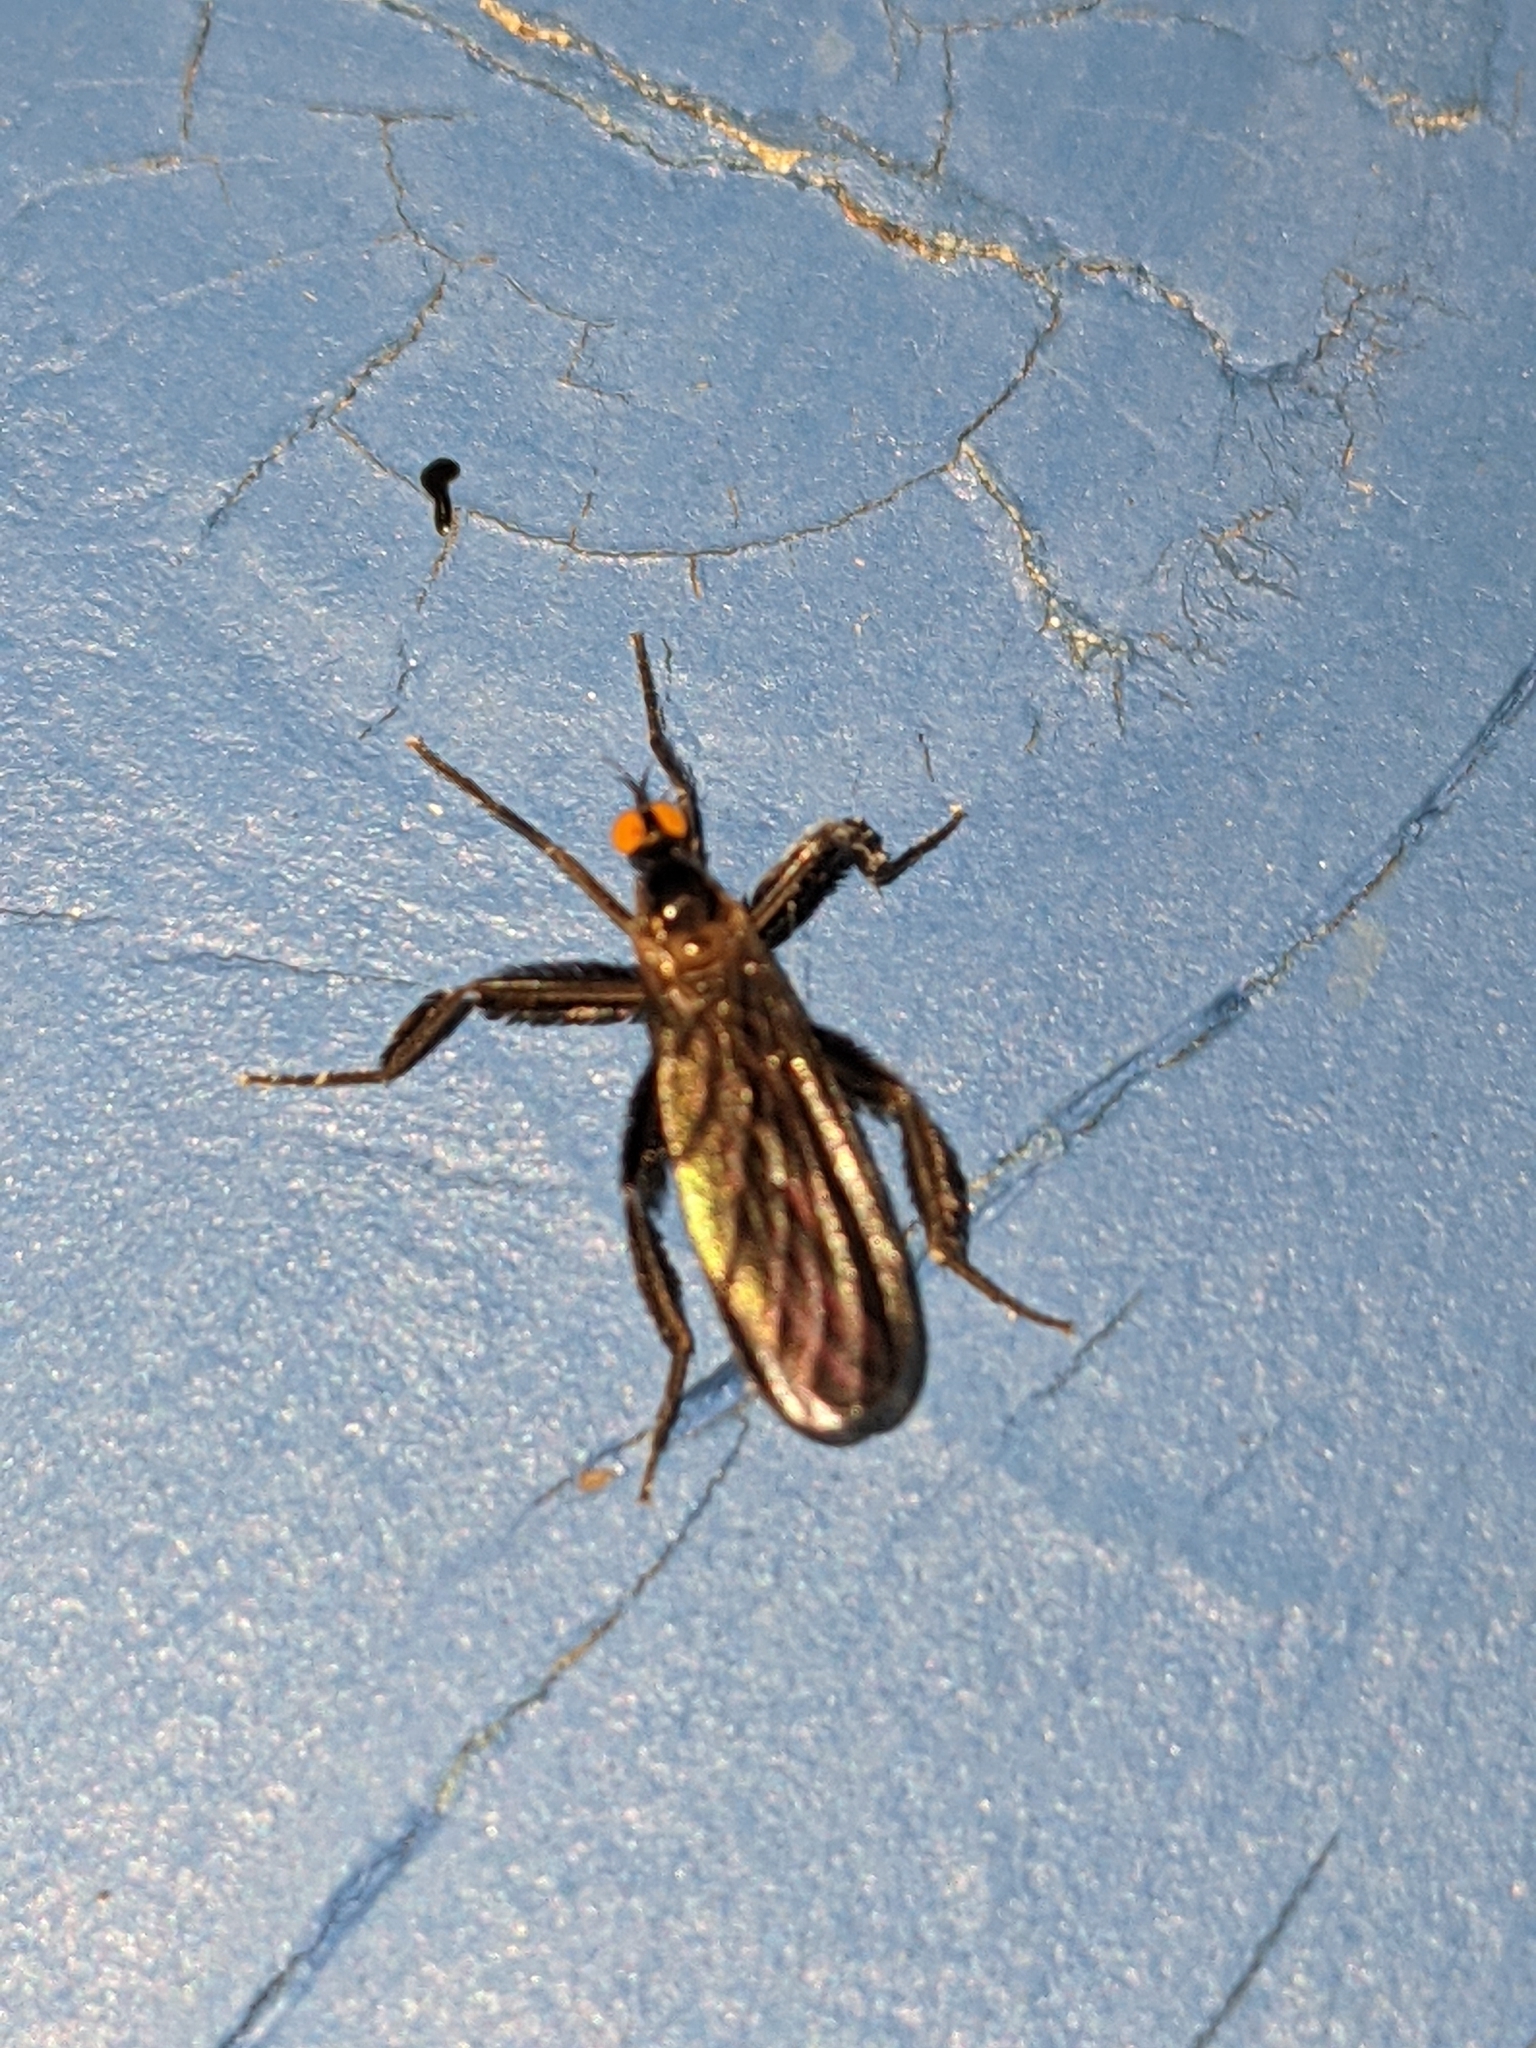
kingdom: Animalia
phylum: Arthropoda
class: Insecta
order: Diptera
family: Empididae
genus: Rhamphomyia
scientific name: Rhamphomyia longicauda
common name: Long-tailed dance fly
